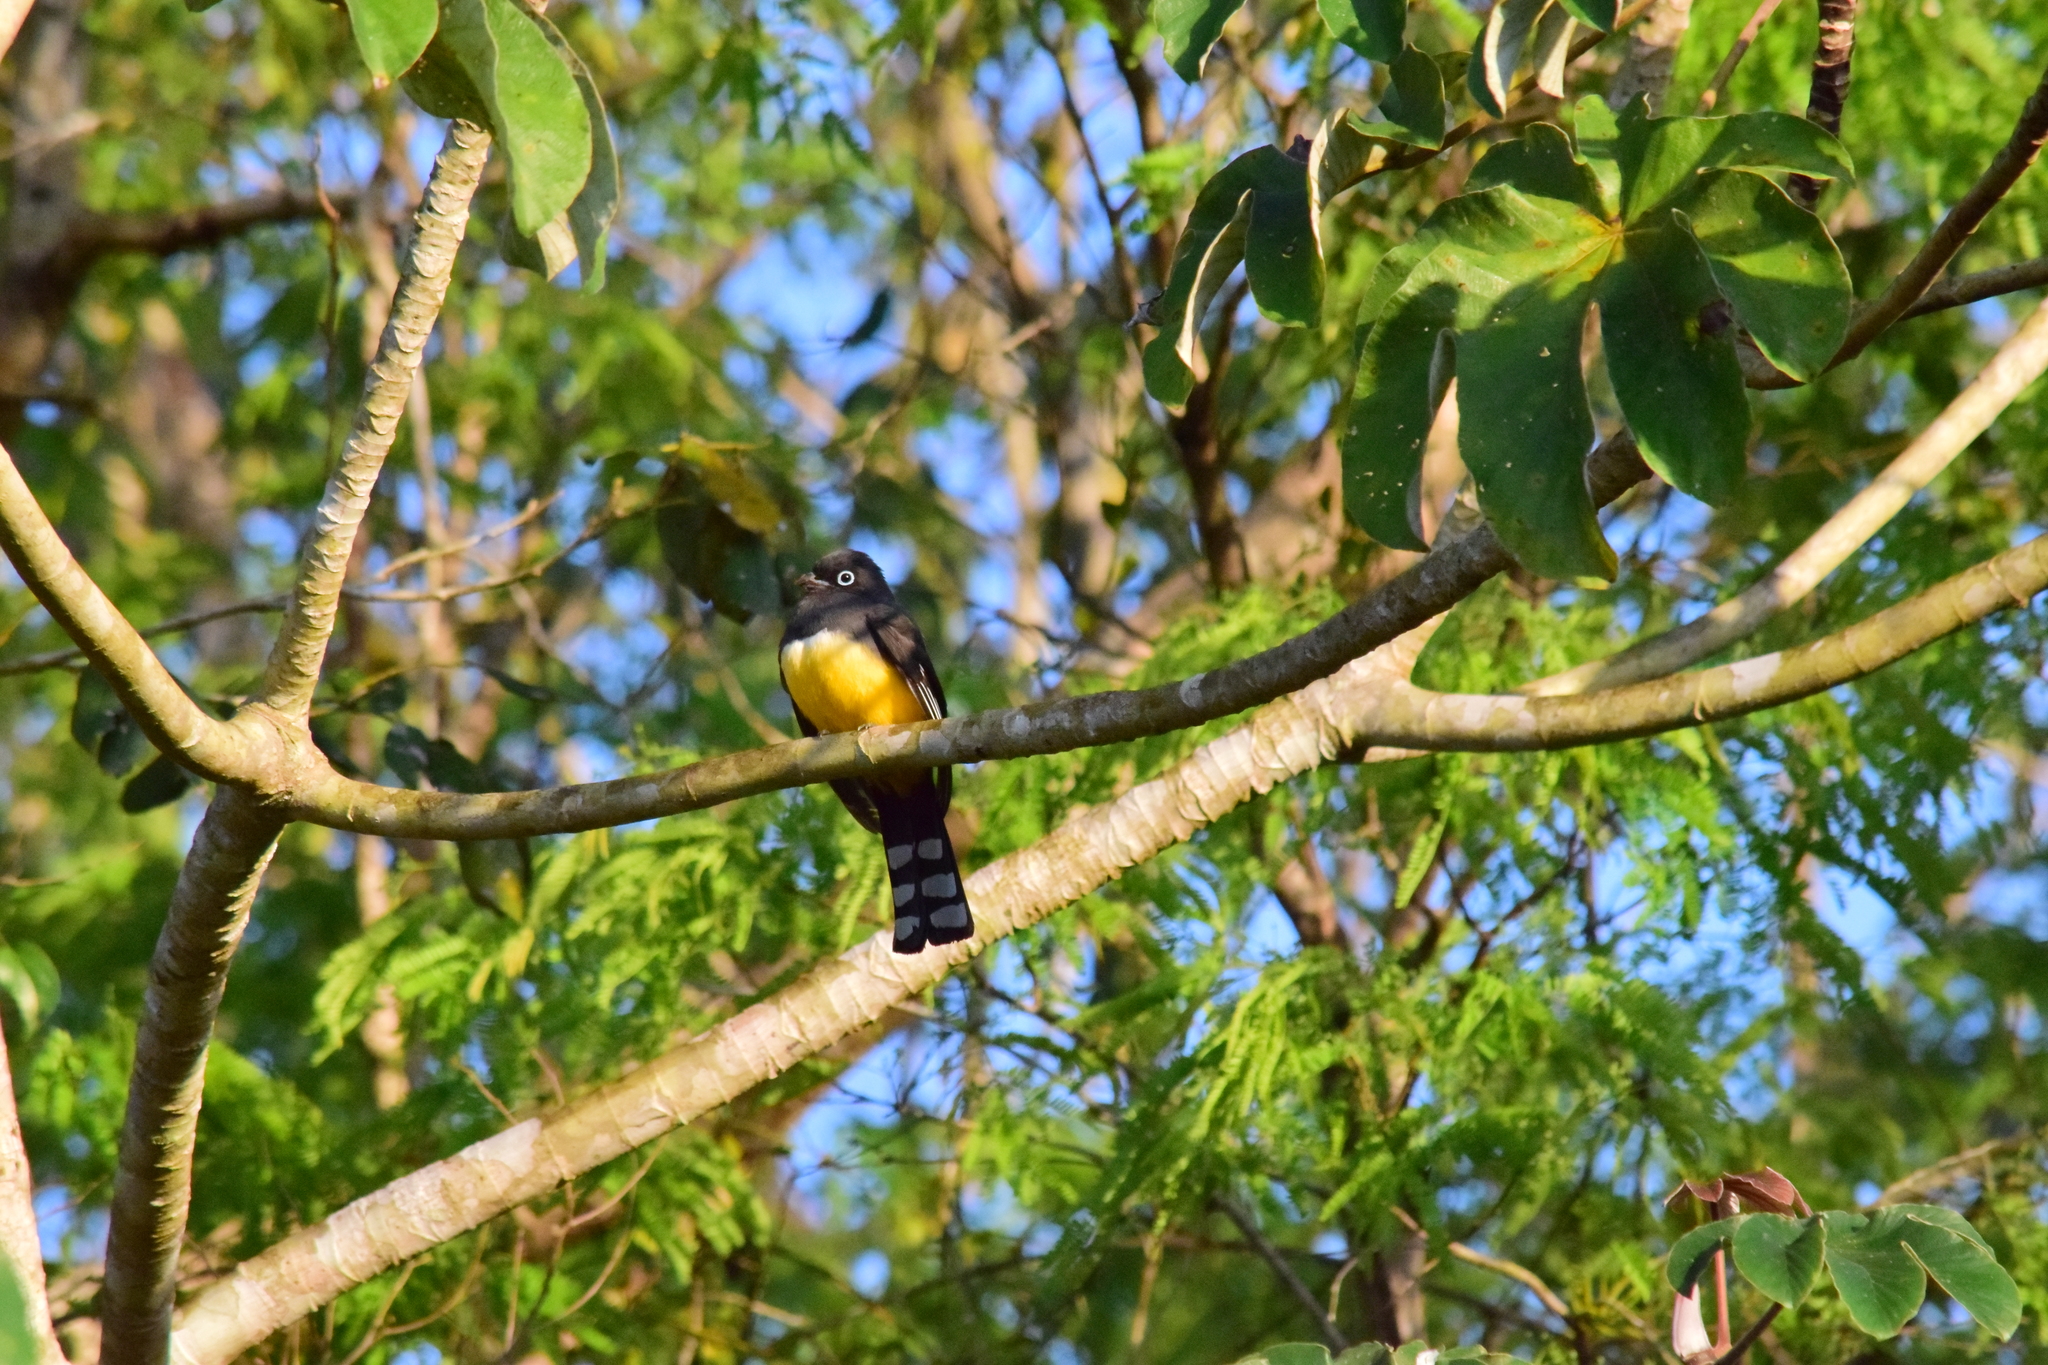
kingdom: Animalia
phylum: Chordata
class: Aves
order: Trogoniformes
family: Trogonidae
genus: Trogon
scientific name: Trogon melanocephalus
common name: Black-headed trogon
